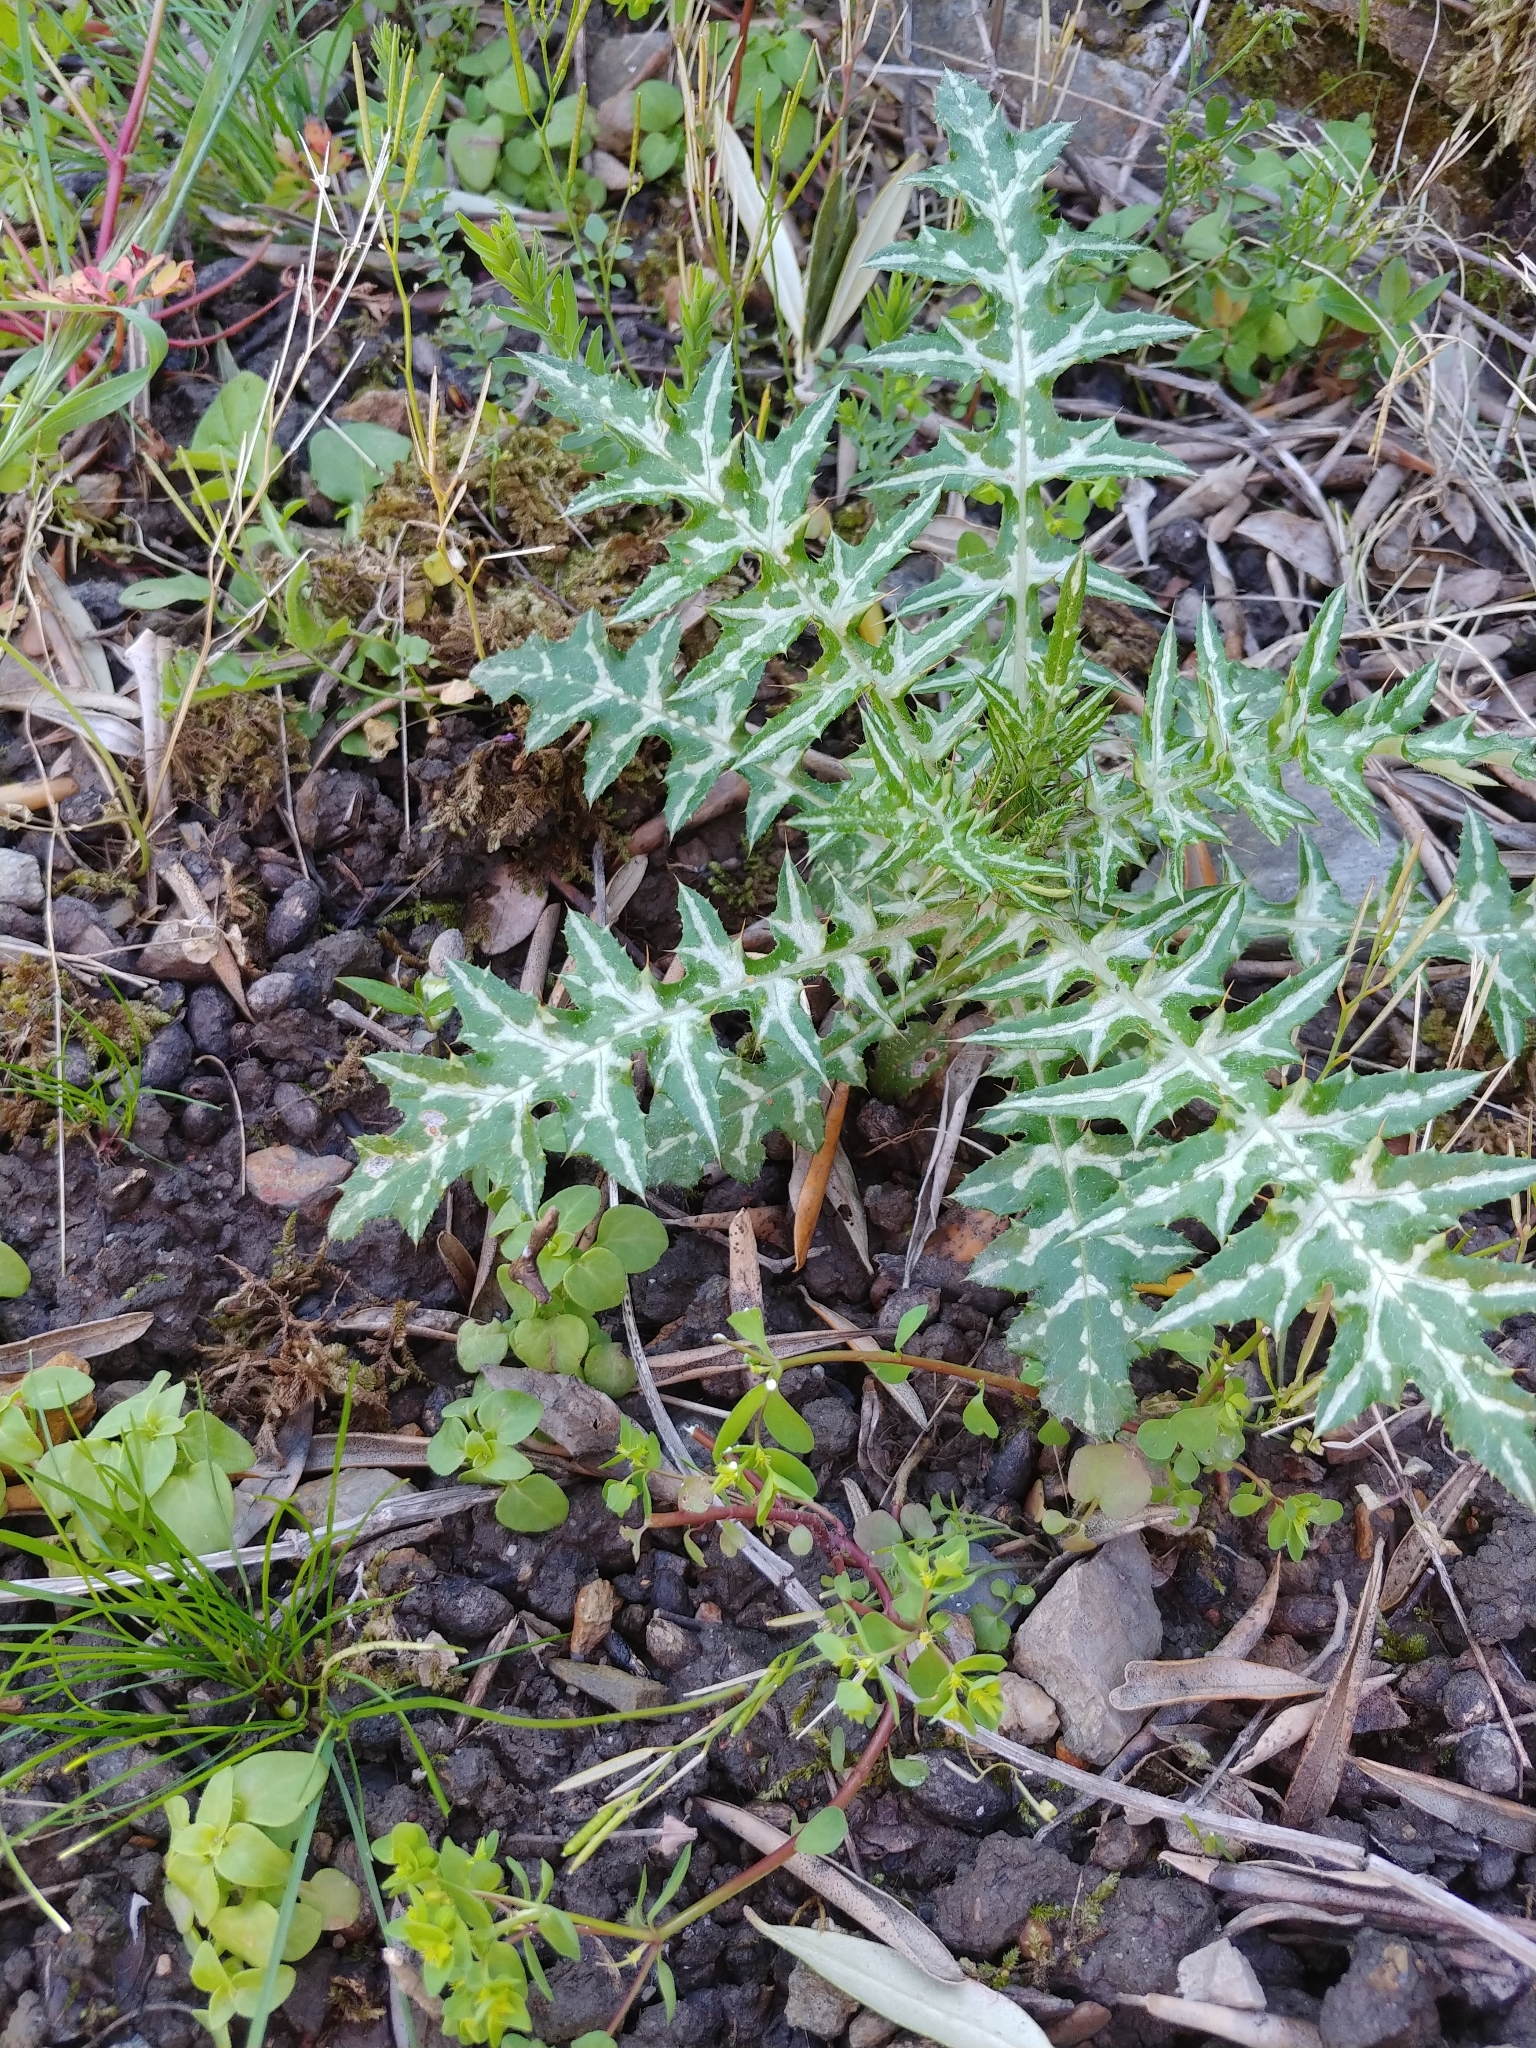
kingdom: Plantae
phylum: Tracheophyta
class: Magnoliopsida
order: Asterales
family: Asteraceae
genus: Galactites
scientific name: Galactites tomentosa
